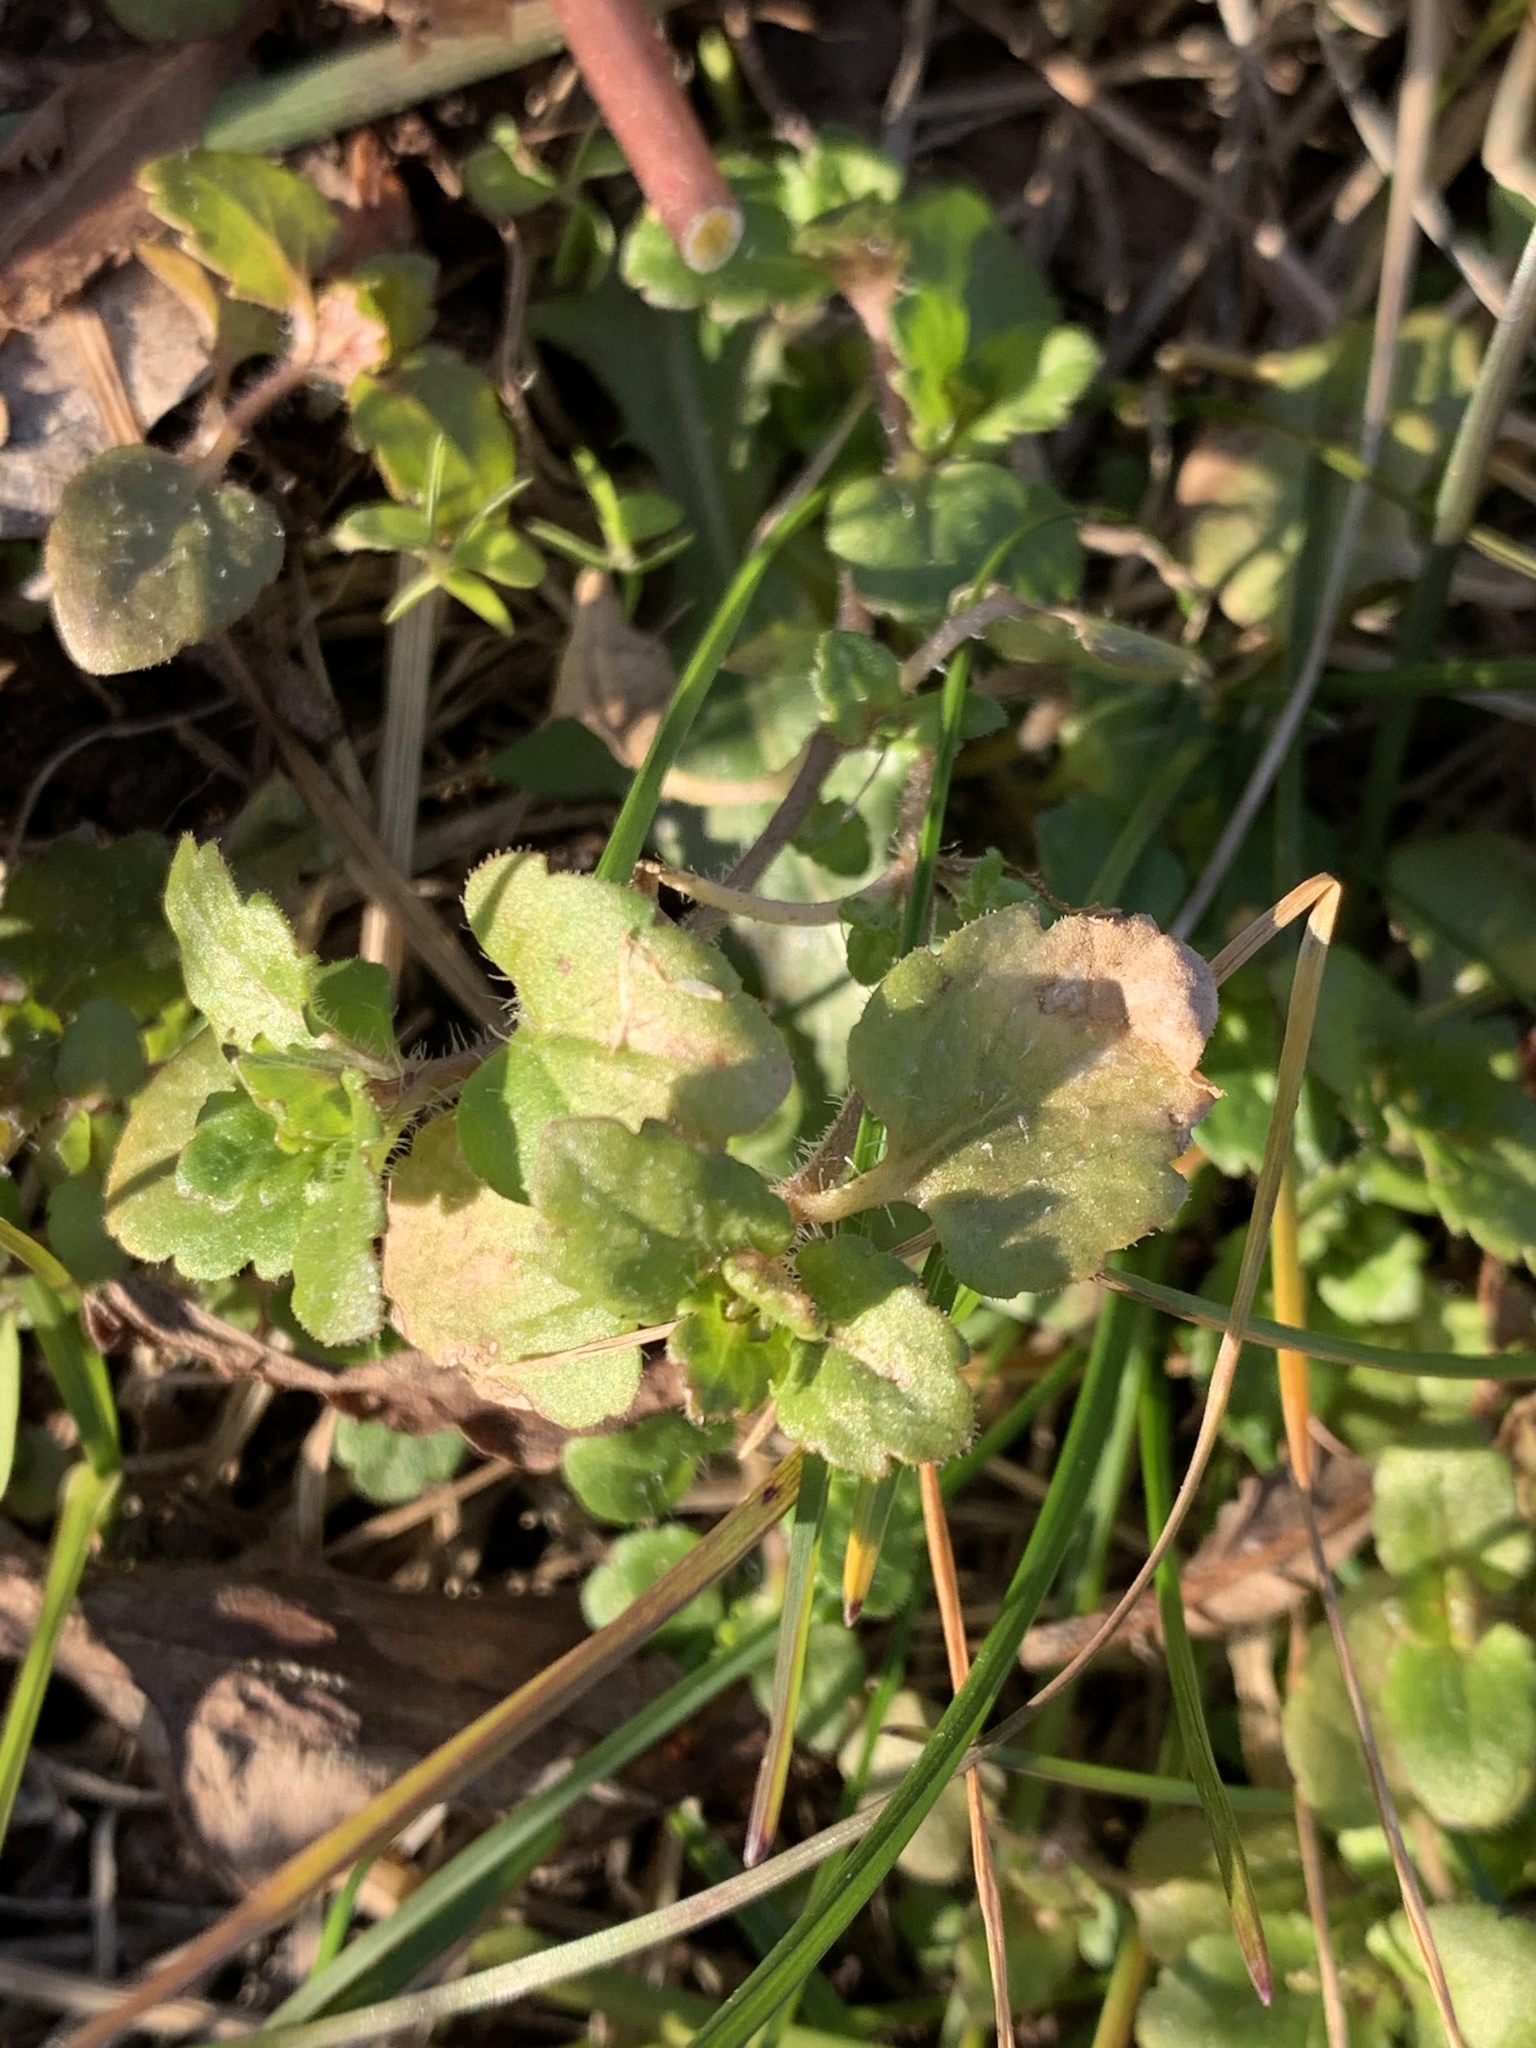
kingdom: Plantae
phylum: Tracheophyta
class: Magnoliopsida
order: Lamiales
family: Plantaginaceae
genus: Veronica
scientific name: Veronica persica
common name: Common field-speedwell
